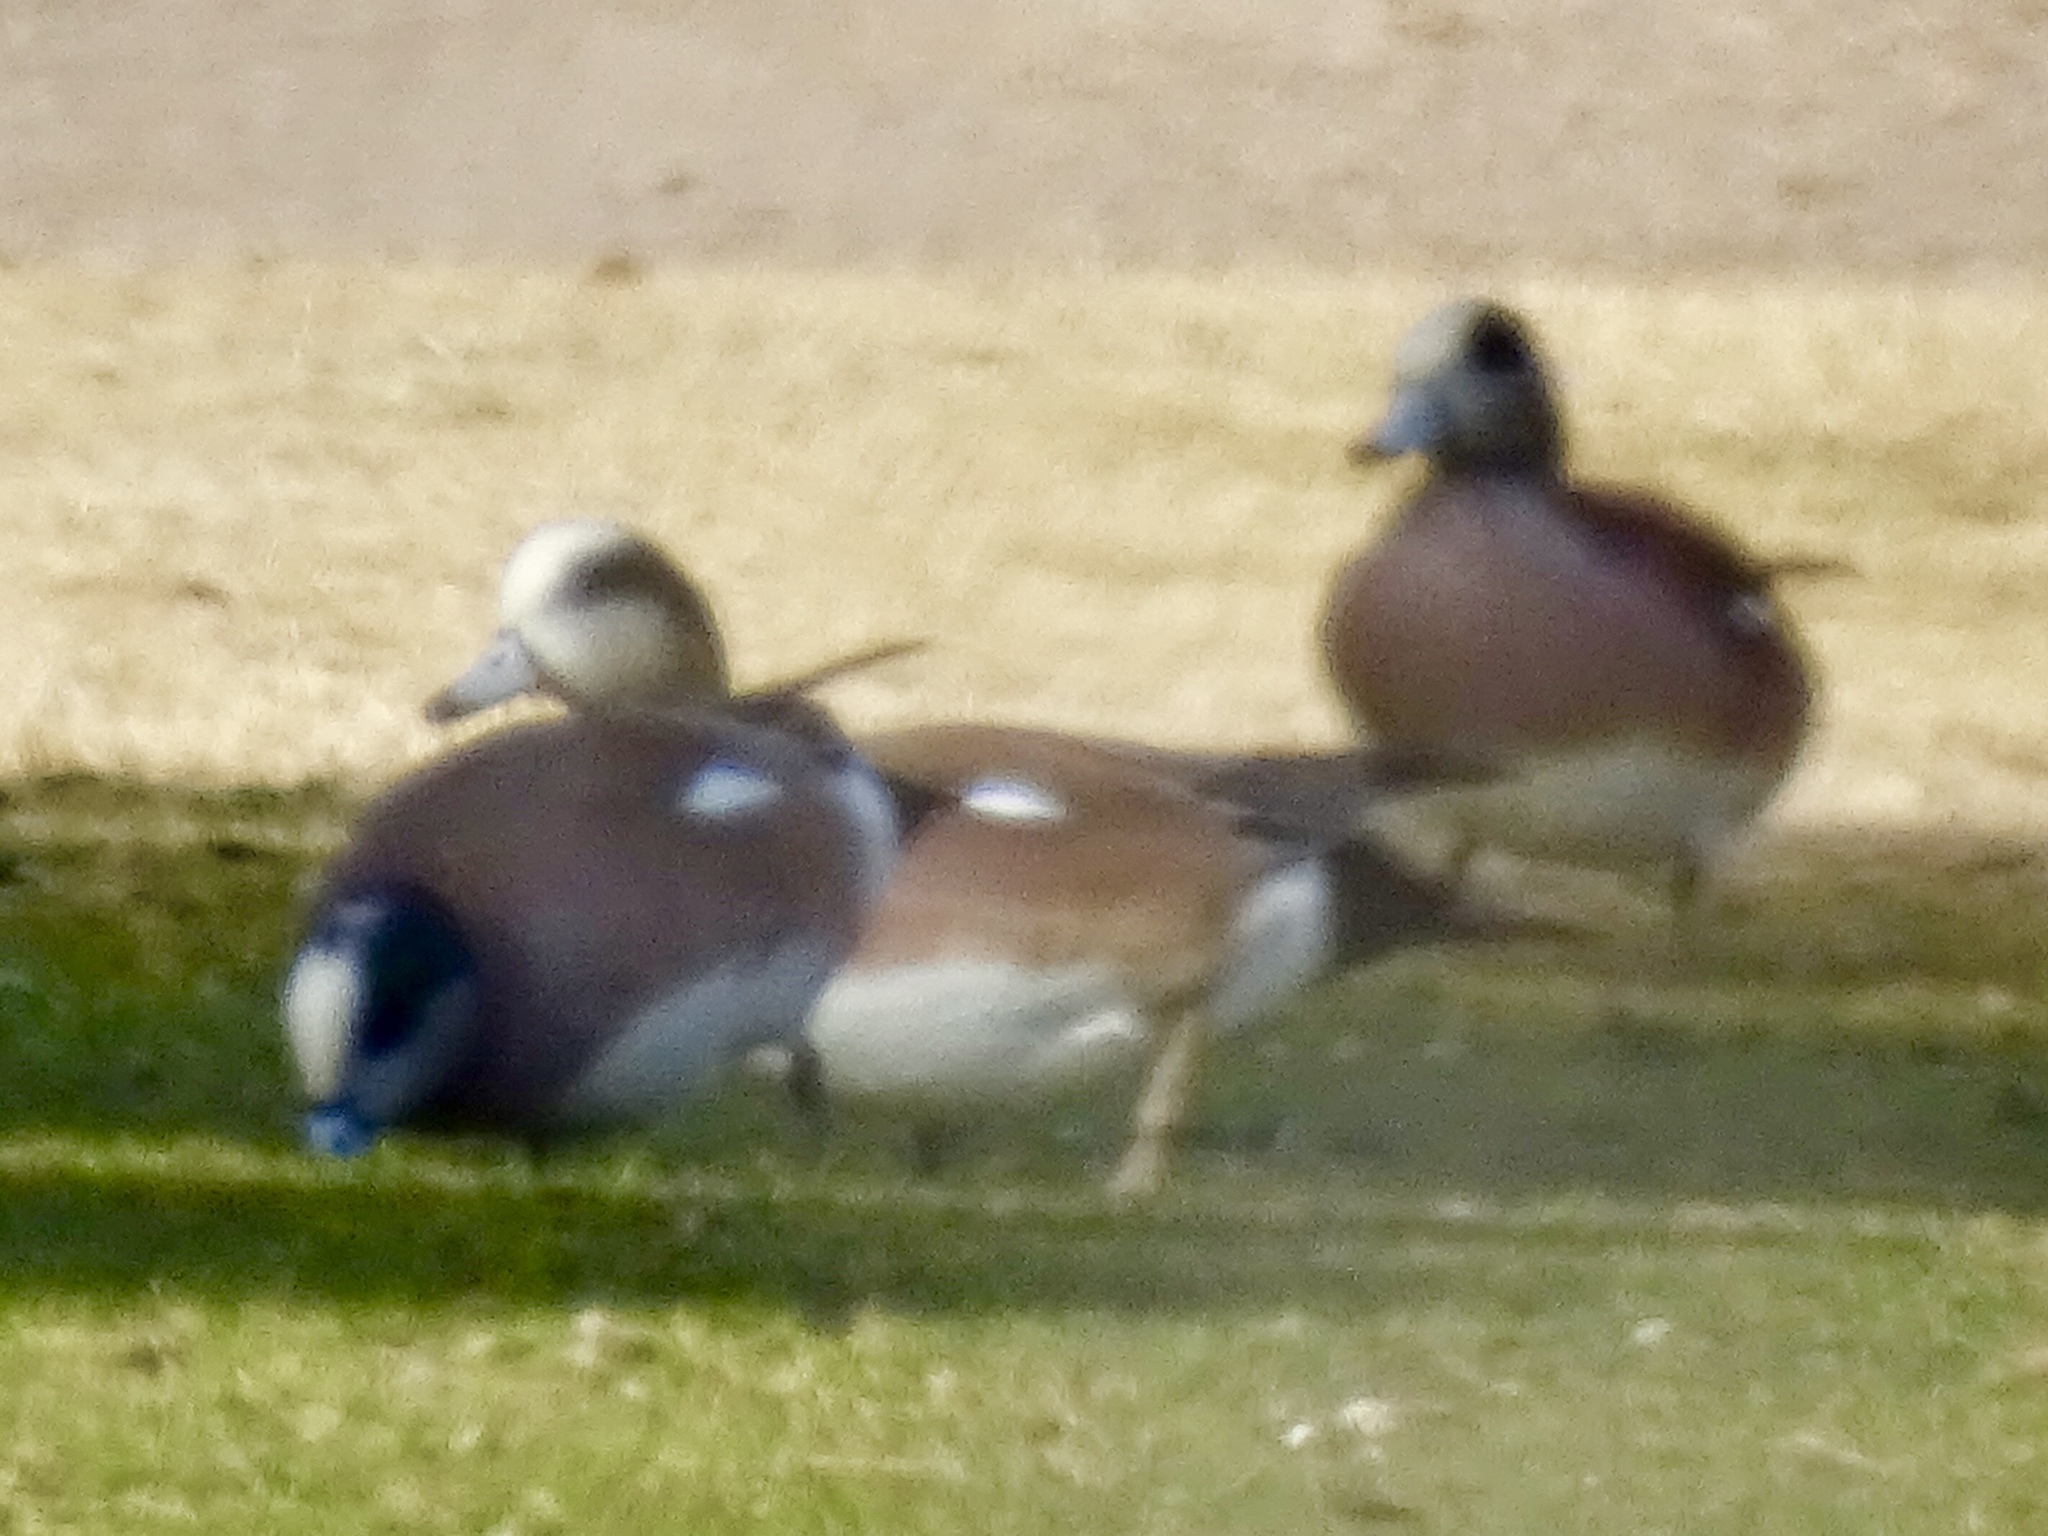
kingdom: Animalia
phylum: Chordata
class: Aves
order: Anseriformes
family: Anatidae
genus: Mareca
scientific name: Mareca americana
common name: American wigeon
